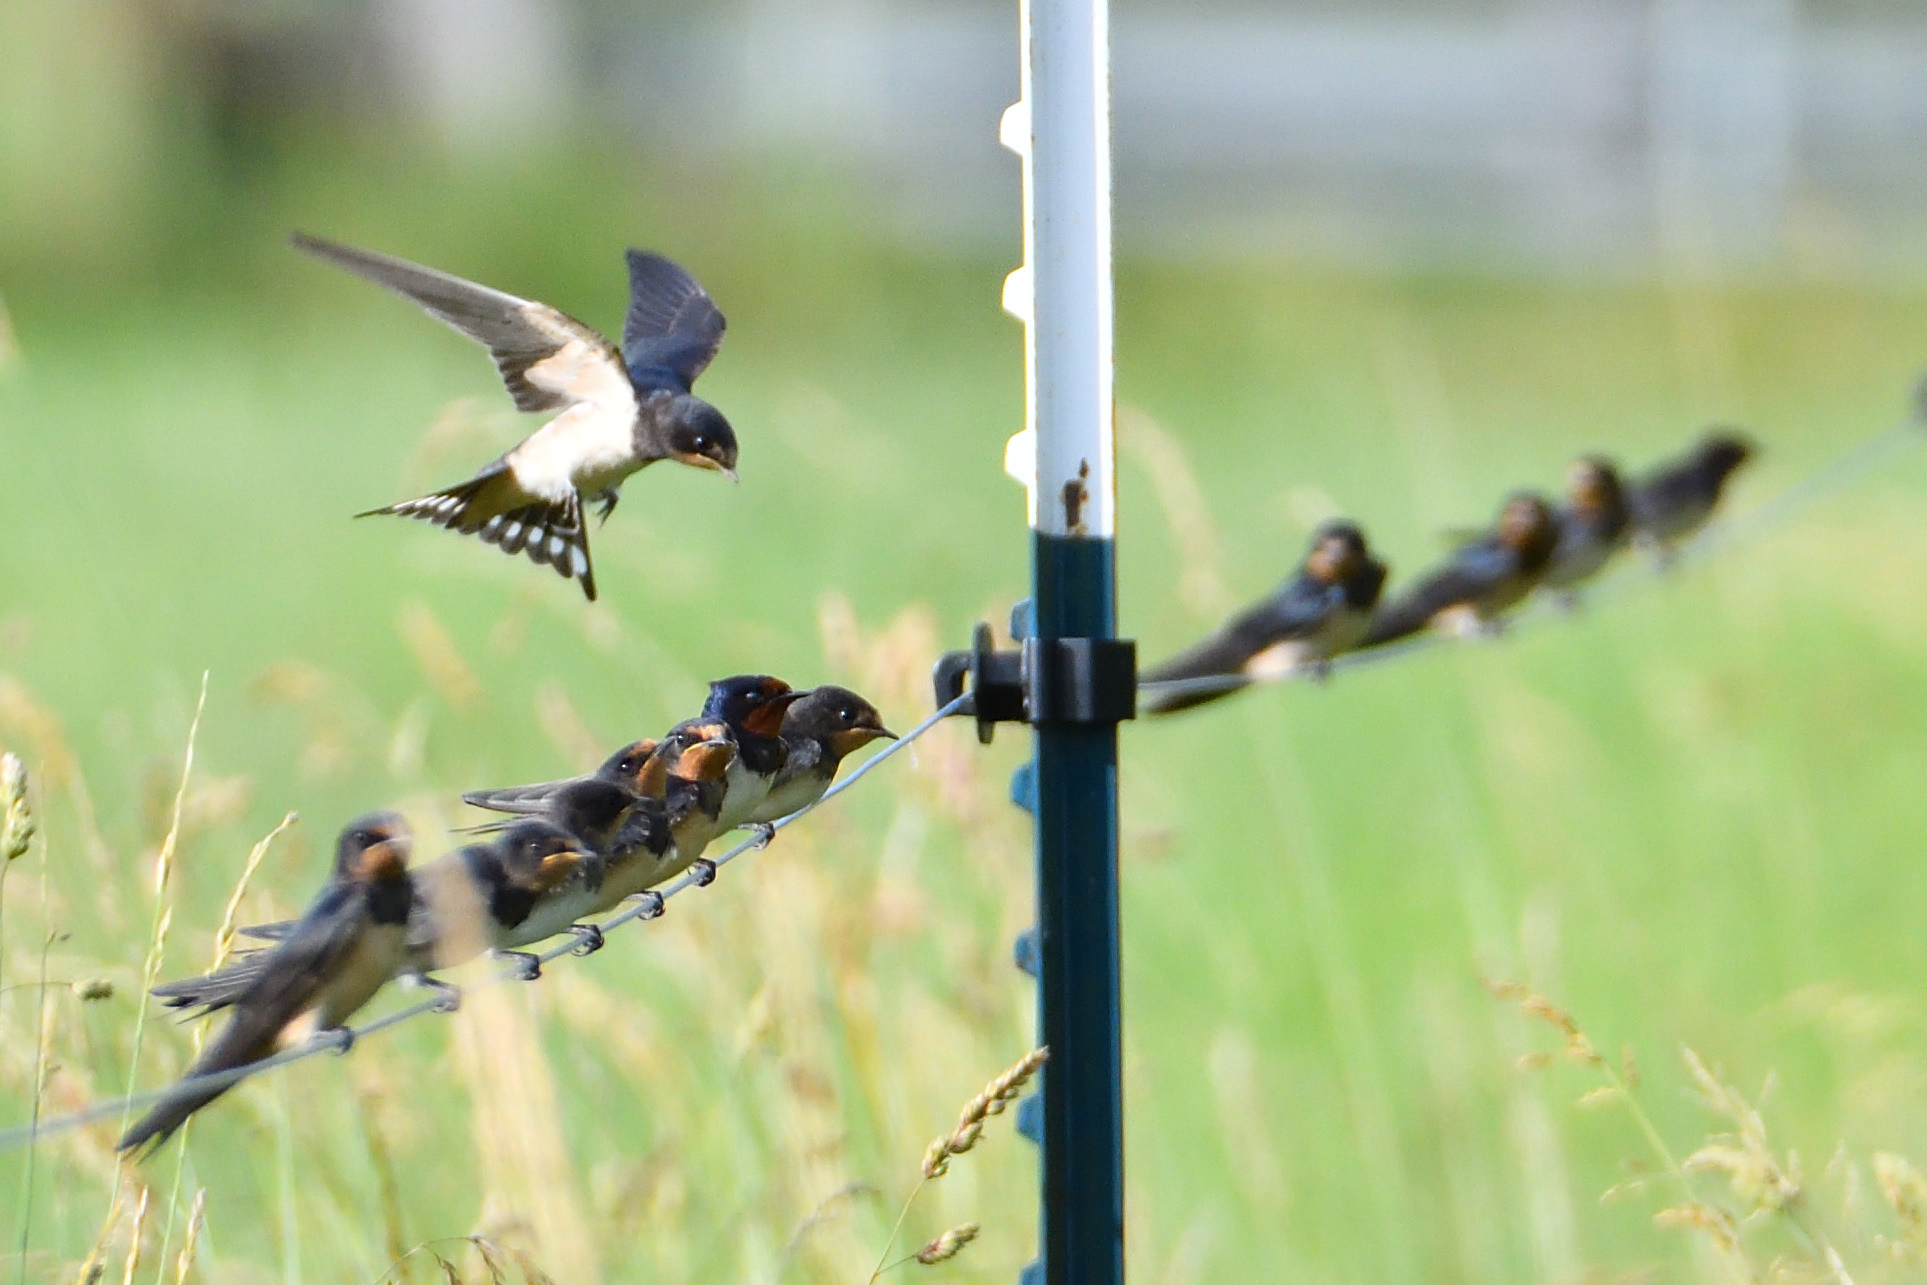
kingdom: Animalia
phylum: Chordata
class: Aves
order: Passeriformes
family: Hirundinidae
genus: Hirundo
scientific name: Hirundo rustica
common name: Barn swallow
